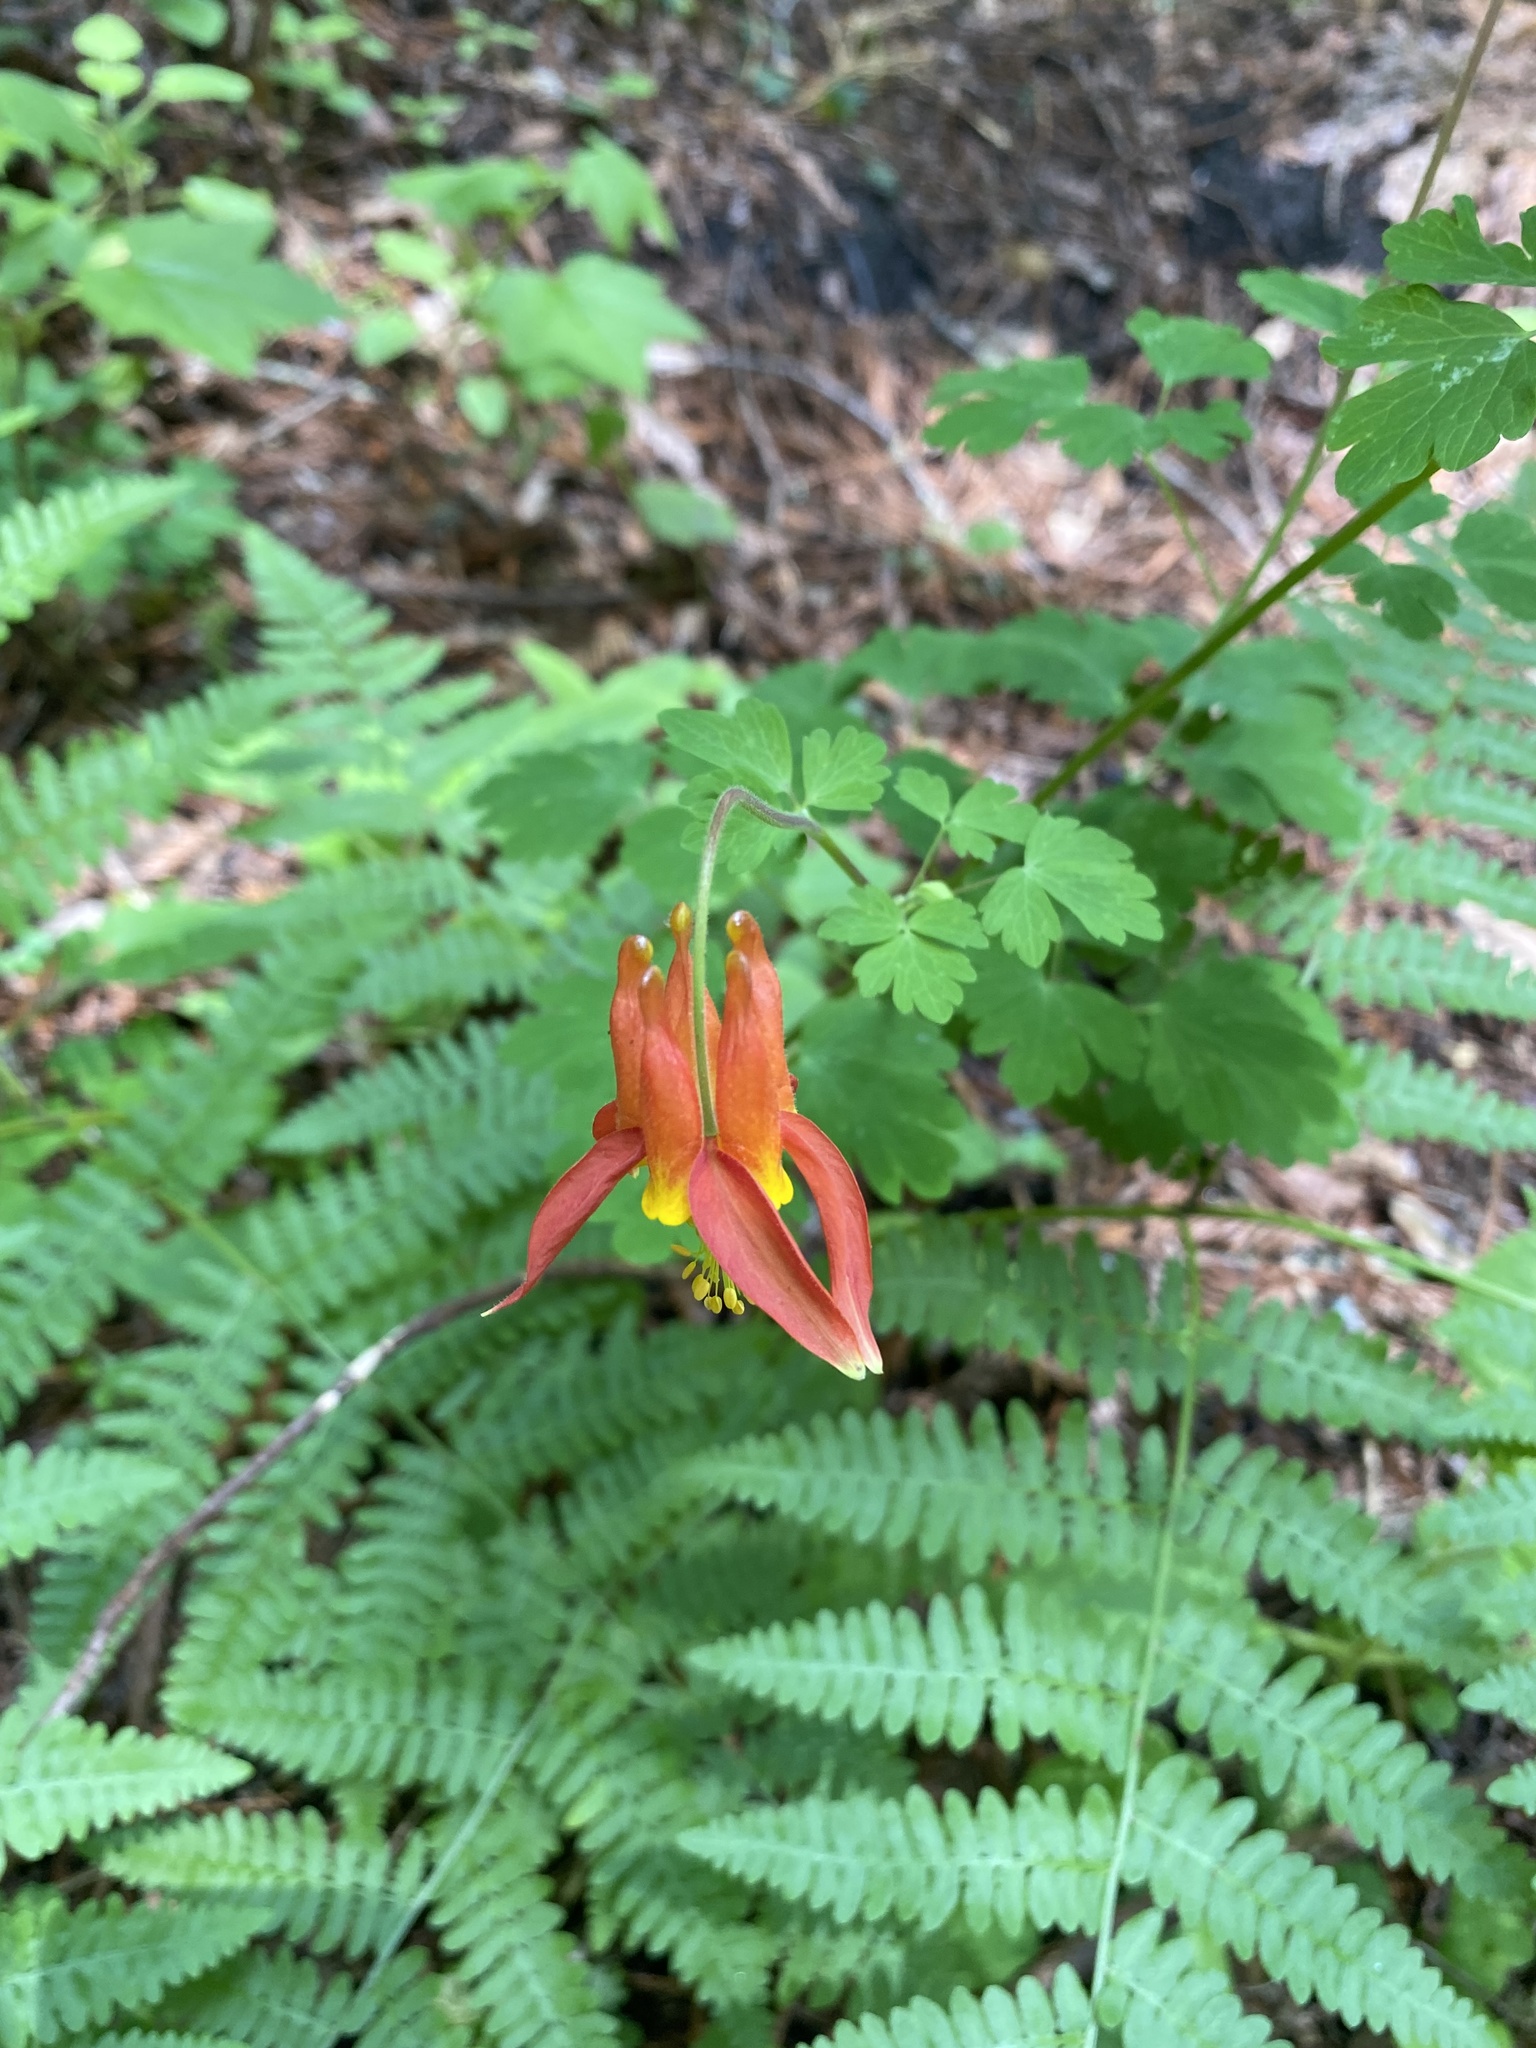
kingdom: Plantae
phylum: Tracheophyta
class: Magnoliopsida
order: Ranunculales
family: Ranunculaceae
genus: Aquilegia
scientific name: Aquilegia formosa
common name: Sitka columbine
